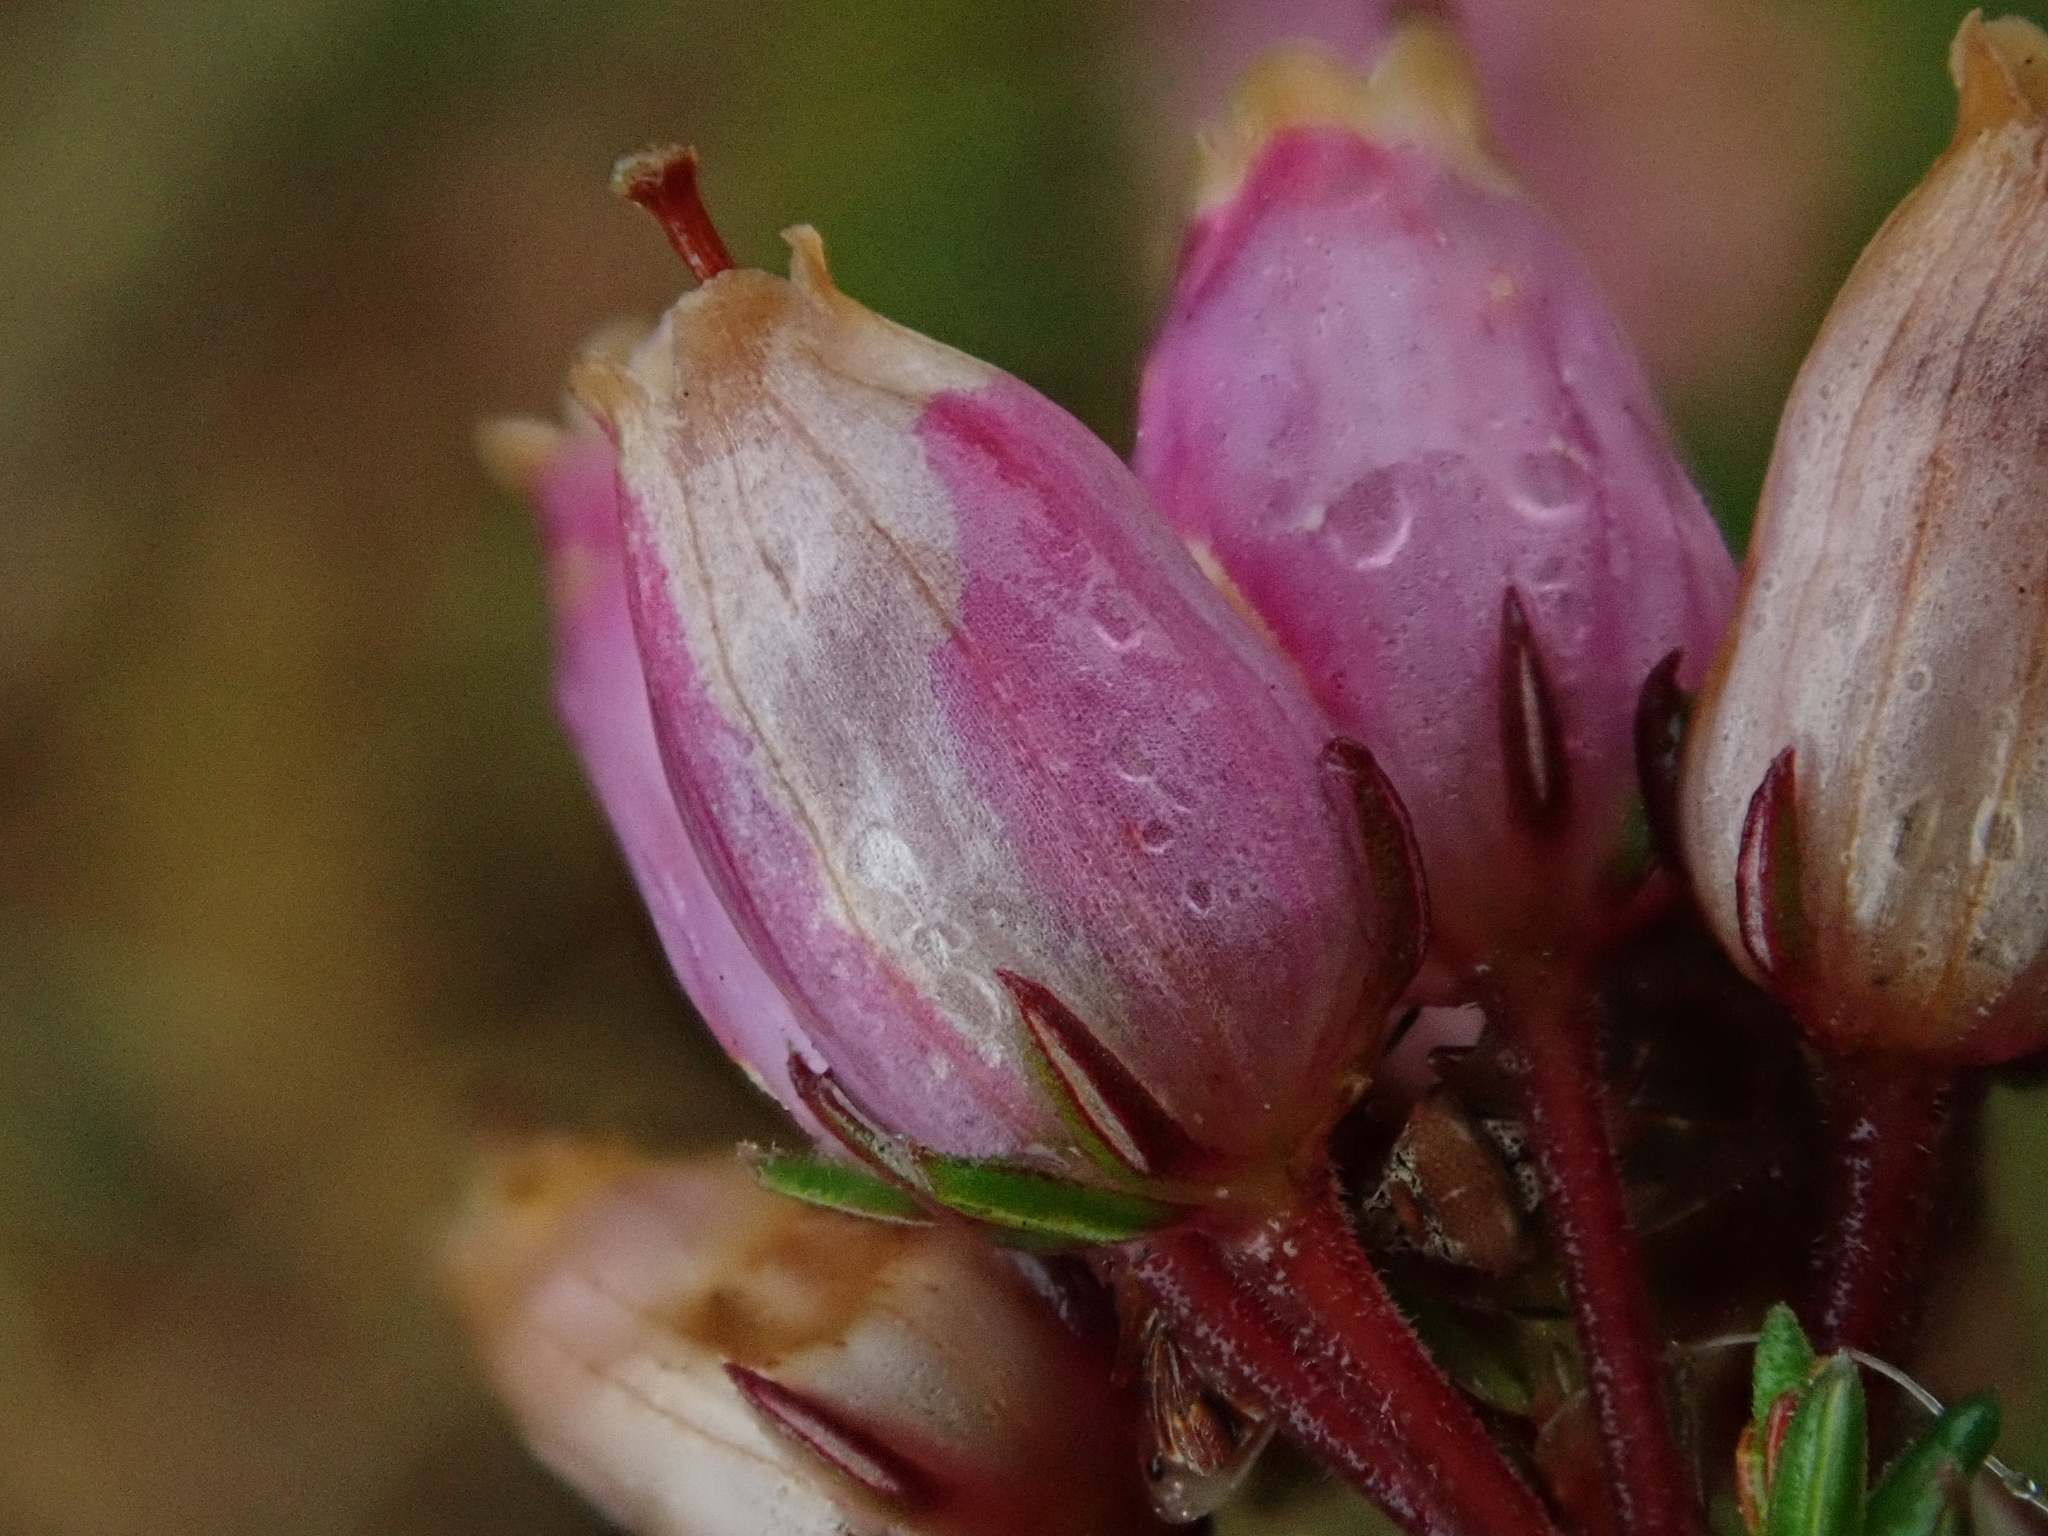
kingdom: Plantae
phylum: Tracheophyta
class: Magnoliopsida
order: Ericales
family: Ericaceae
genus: Erica
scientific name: Erica cinerea
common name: Bell heather
